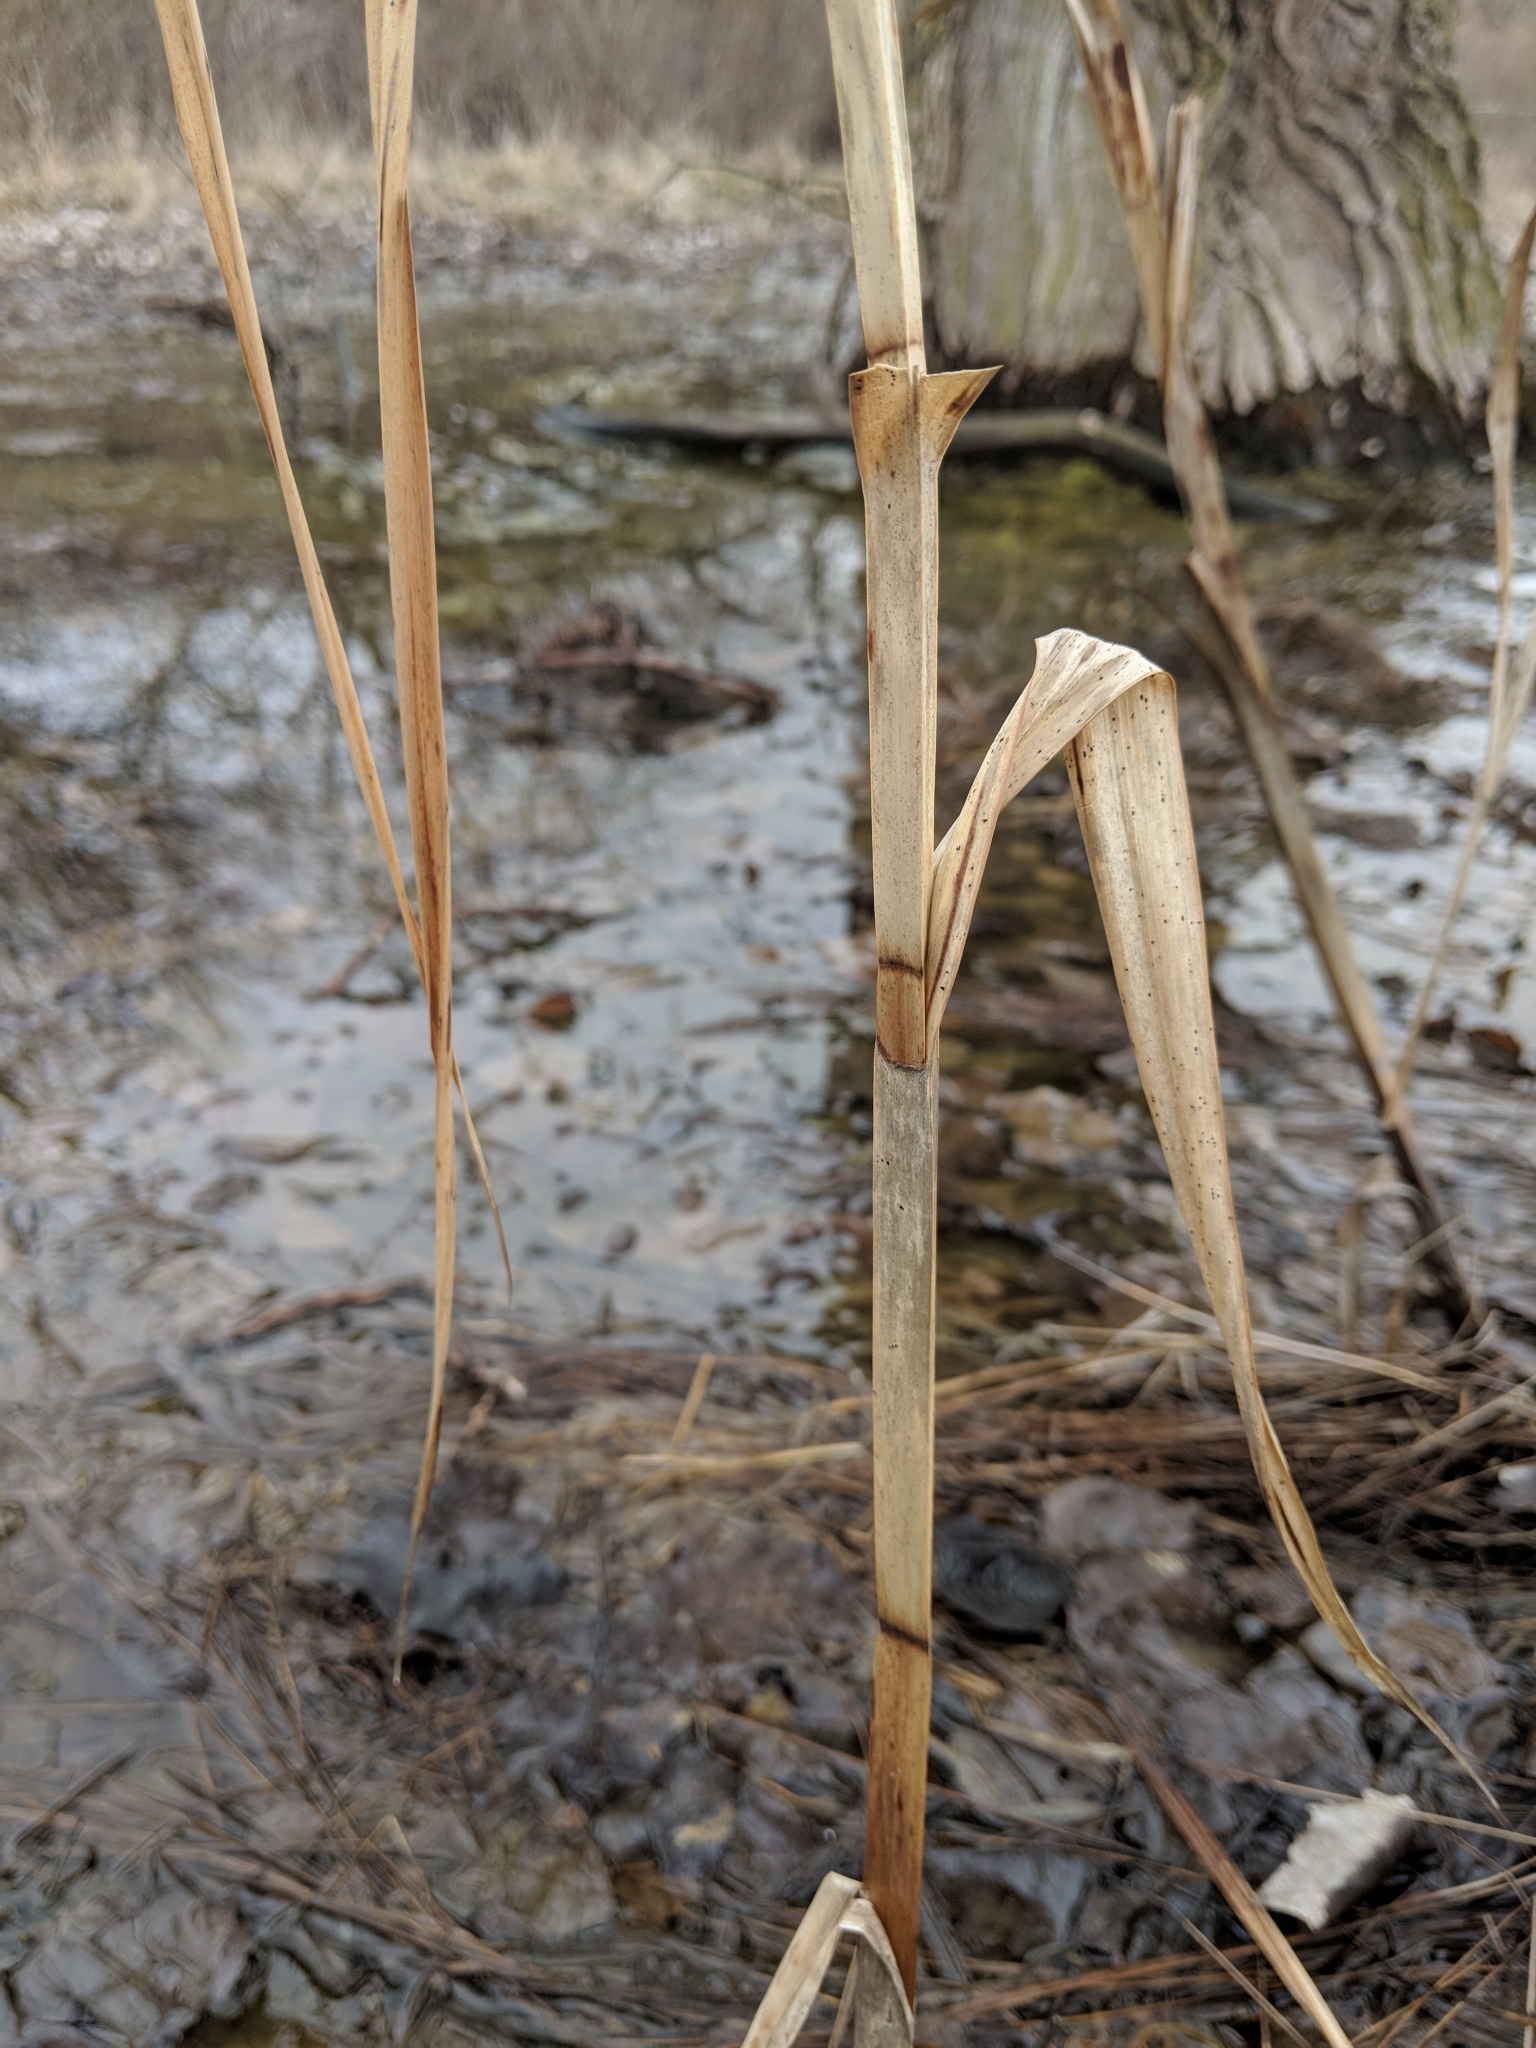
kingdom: Plantae
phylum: Tracheophyta
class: Liliopsida
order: Poales
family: Cyperaceae
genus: Bolboschoenus
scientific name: Bolboschoenus fluviatilis
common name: River bulrush
